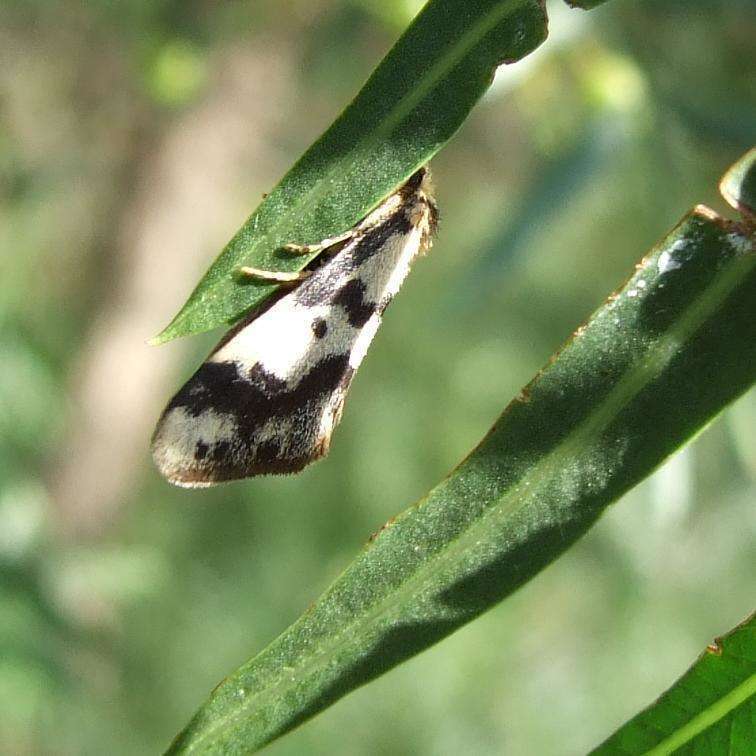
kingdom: Animalia
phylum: Arthropoda
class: Insecta
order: Lepidoptera
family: Erebidae
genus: Anestia
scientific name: Anestia
